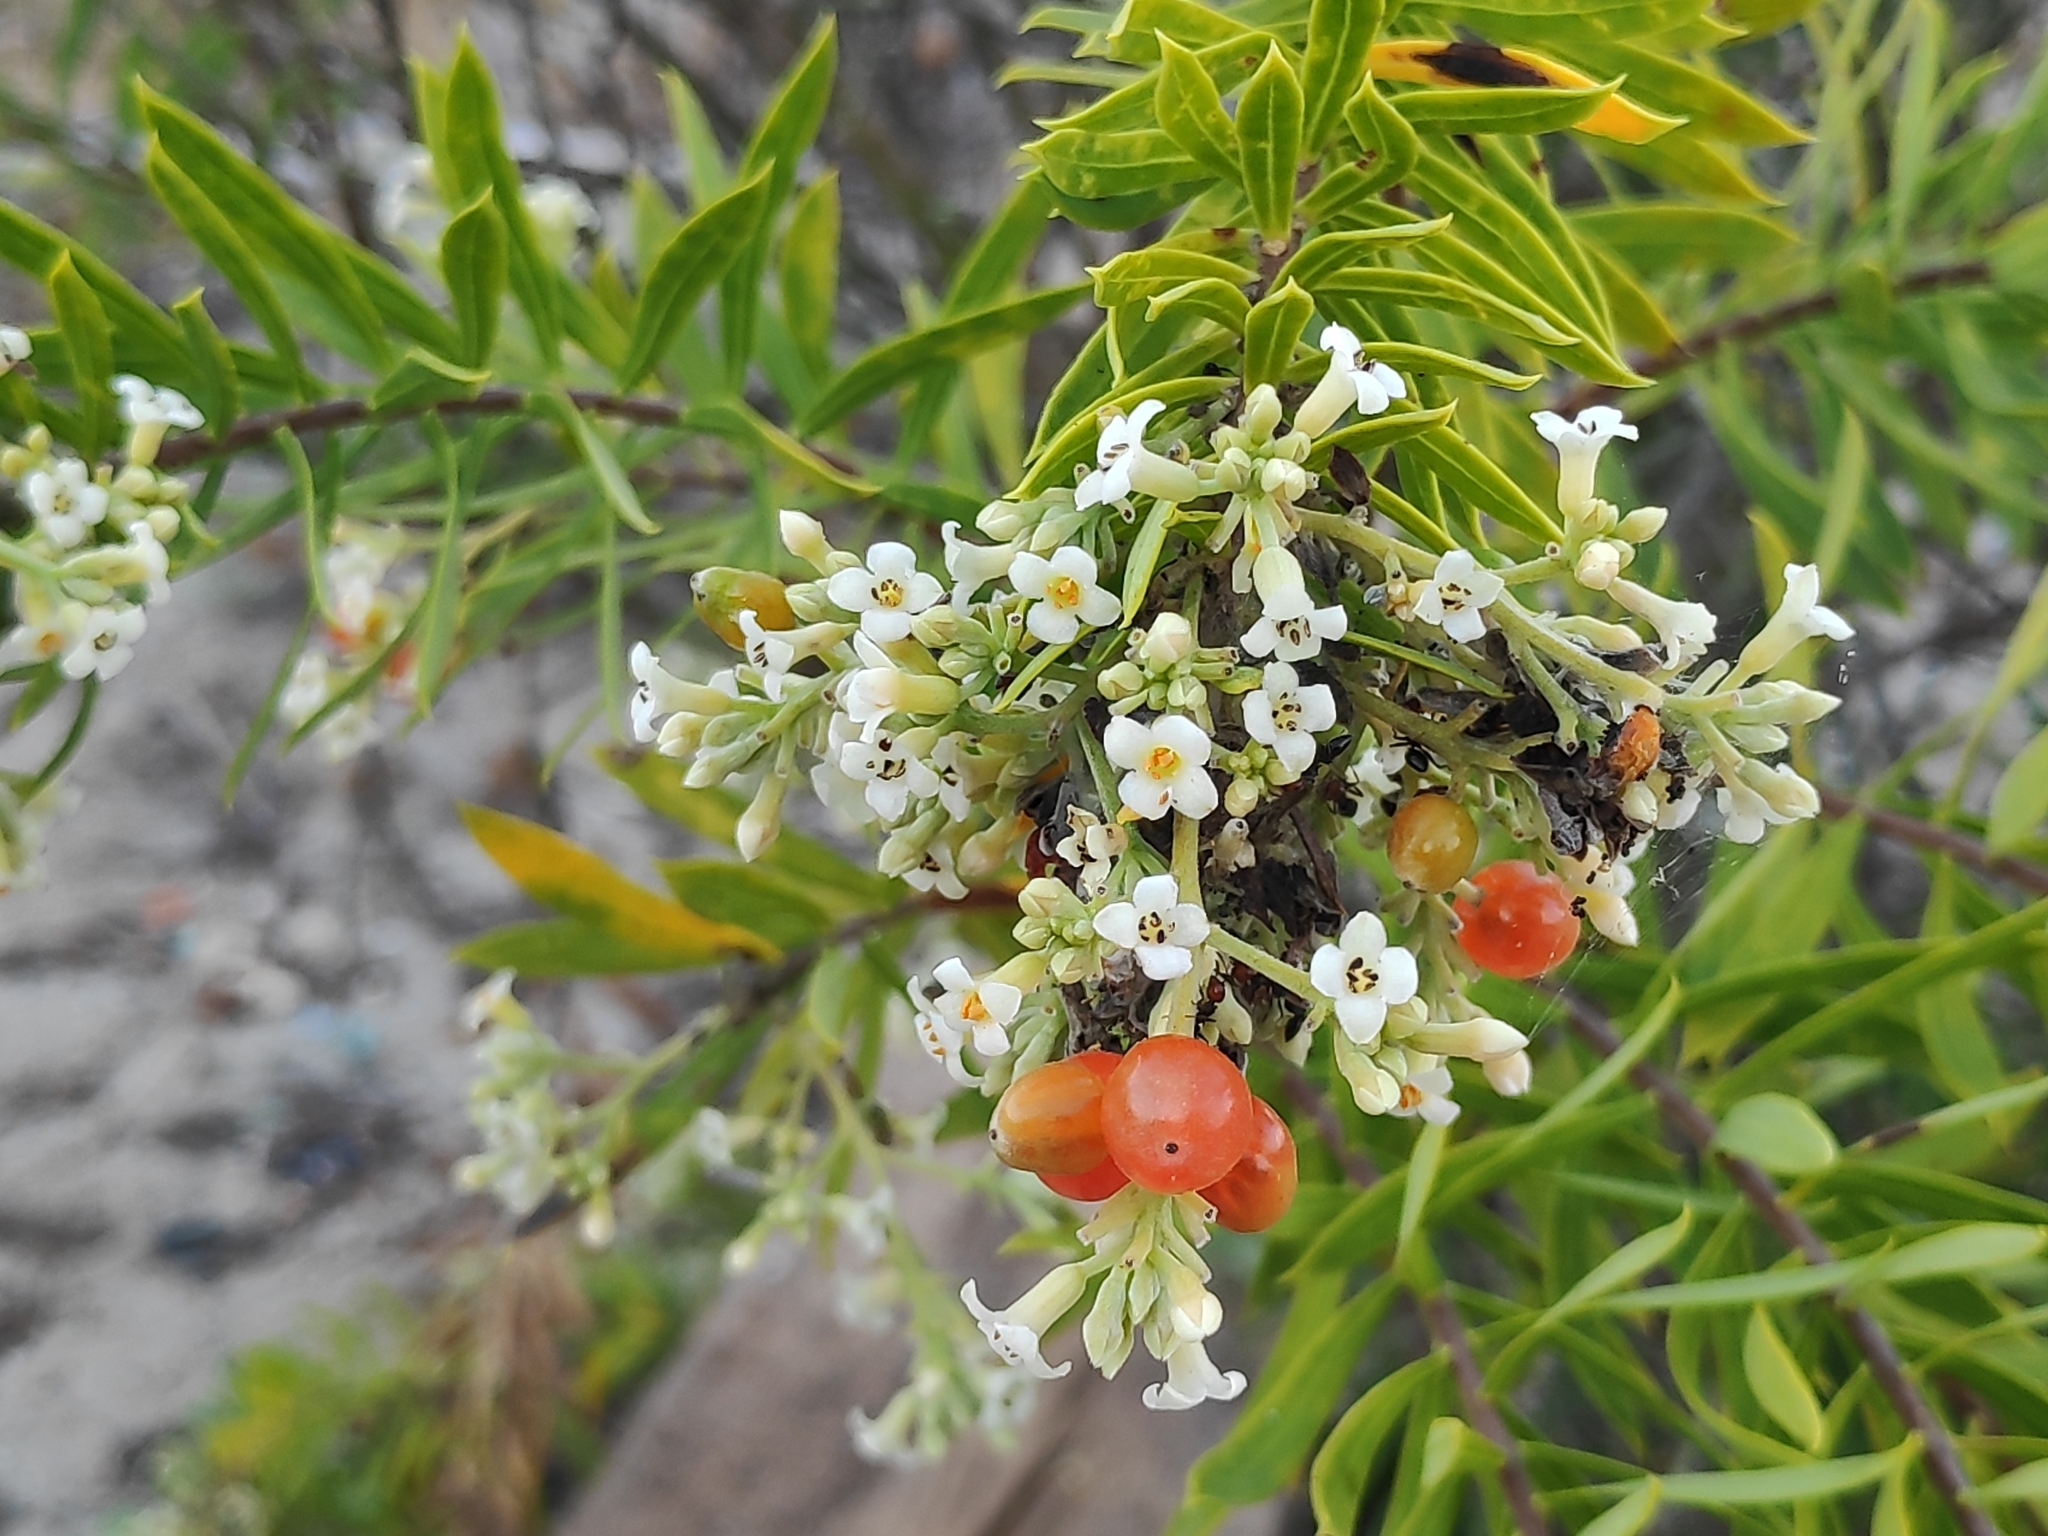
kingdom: Plantae
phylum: Tracheophyta
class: Magnoliopsida
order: Malvales
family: Thymelaeaceae
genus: Daphne
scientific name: Daphne gnidium
